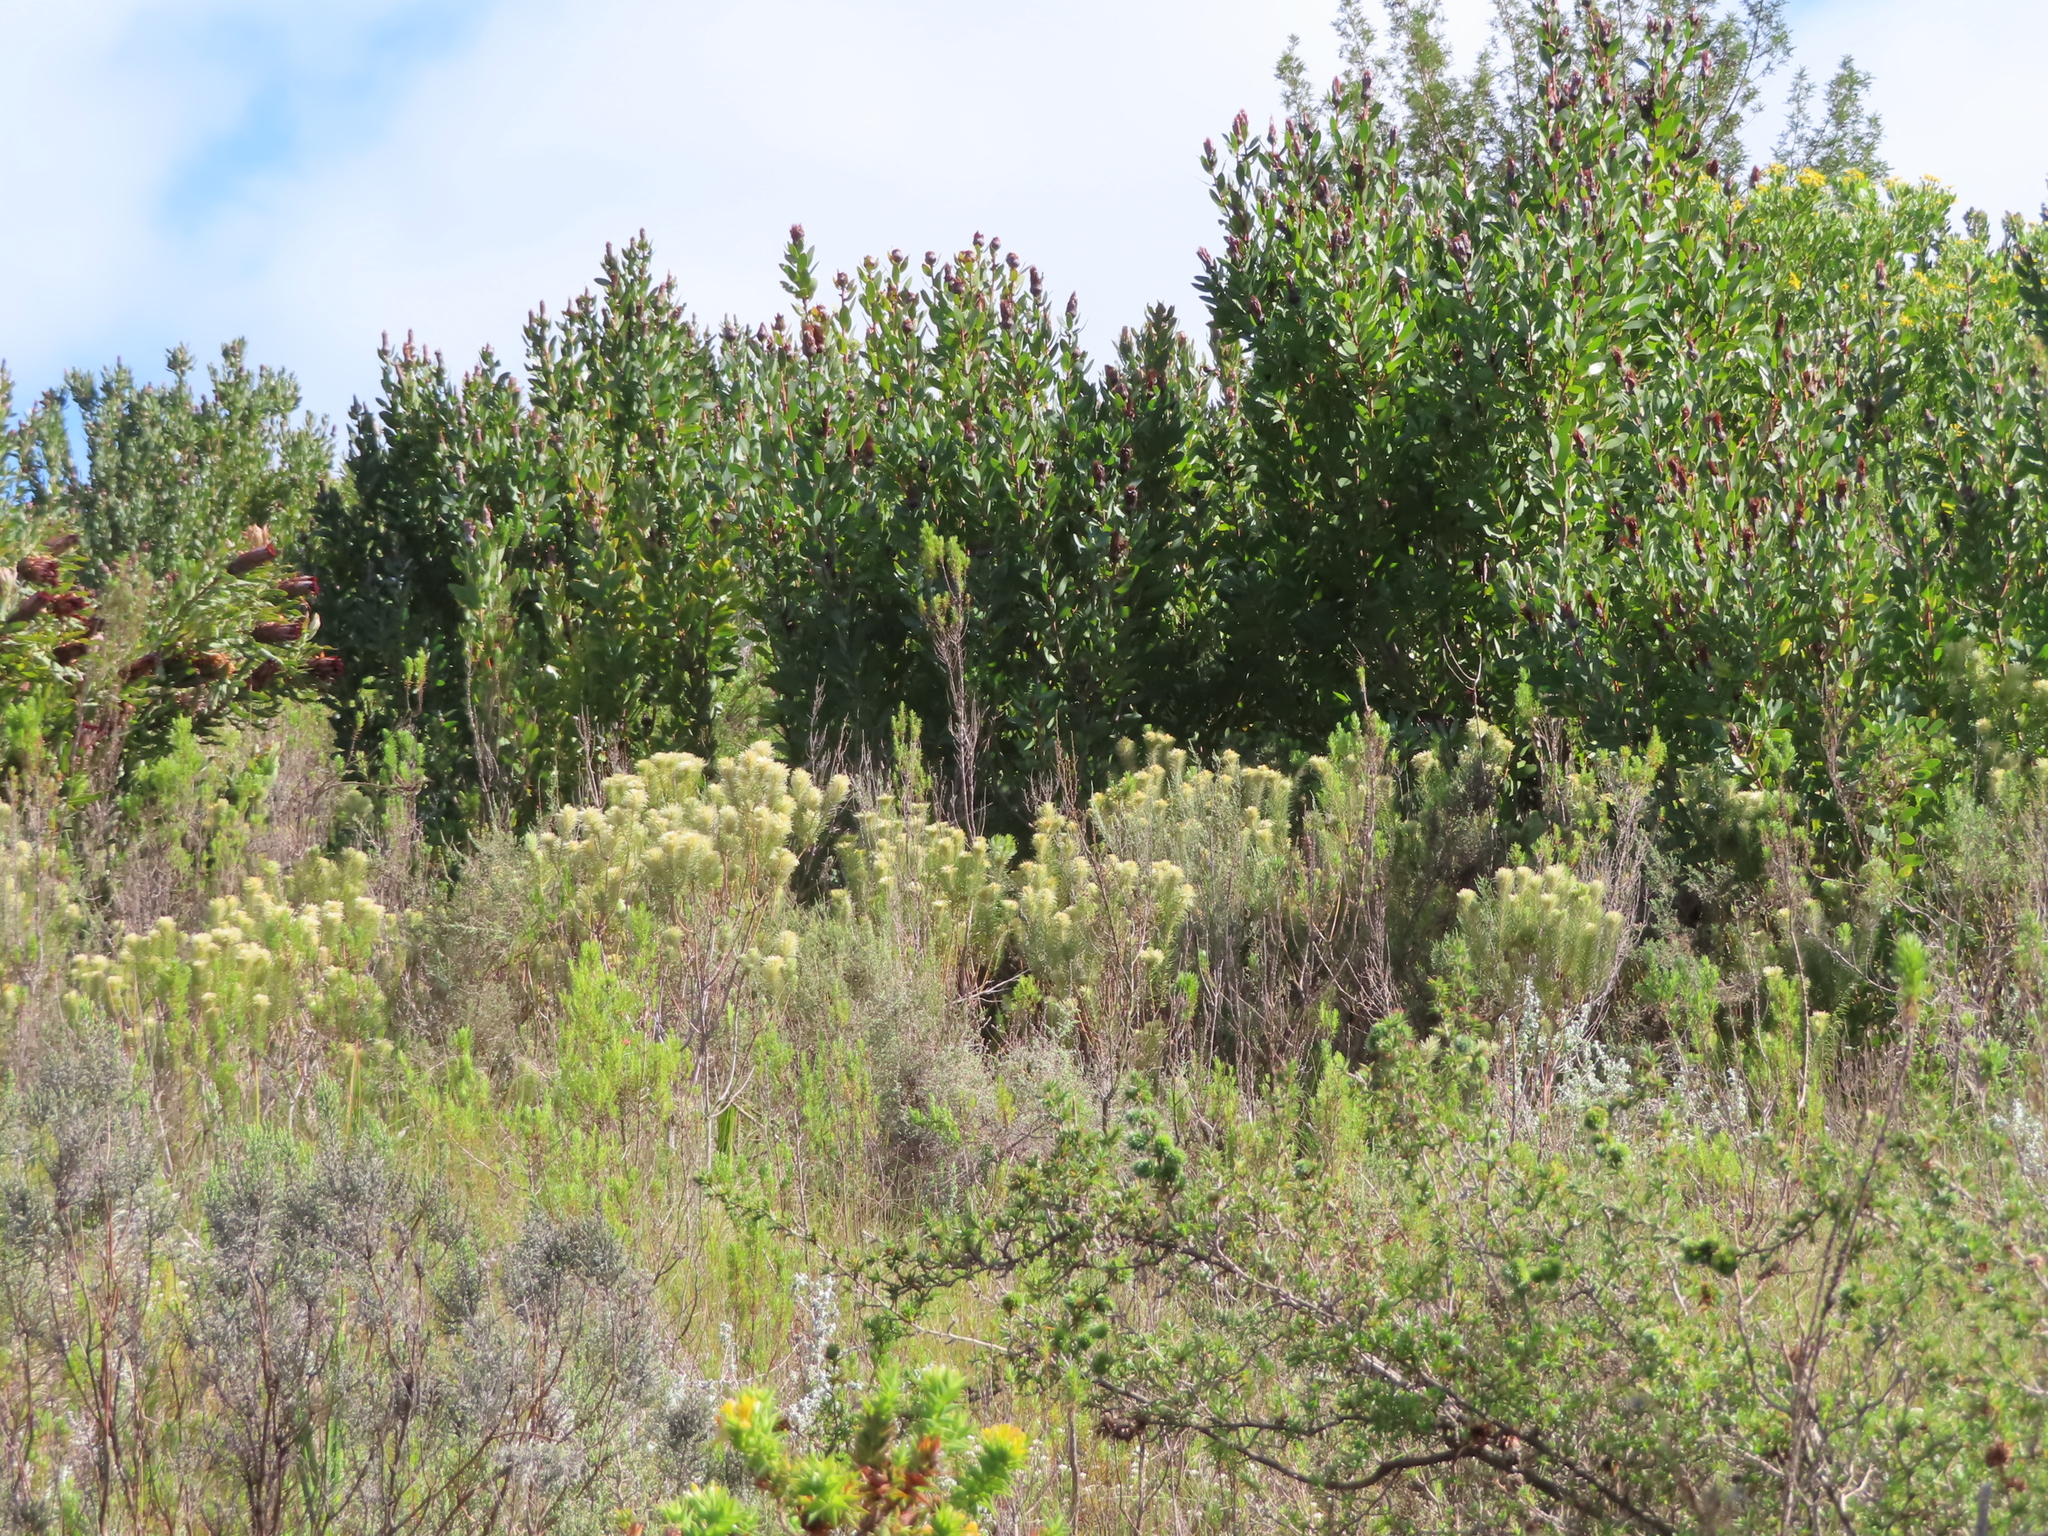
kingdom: Plantae
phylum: Tracheophyta
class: Magnoliopsida
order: Rosales
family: Rhamnaceae
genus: Phylica
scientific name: Phylica pubescens
